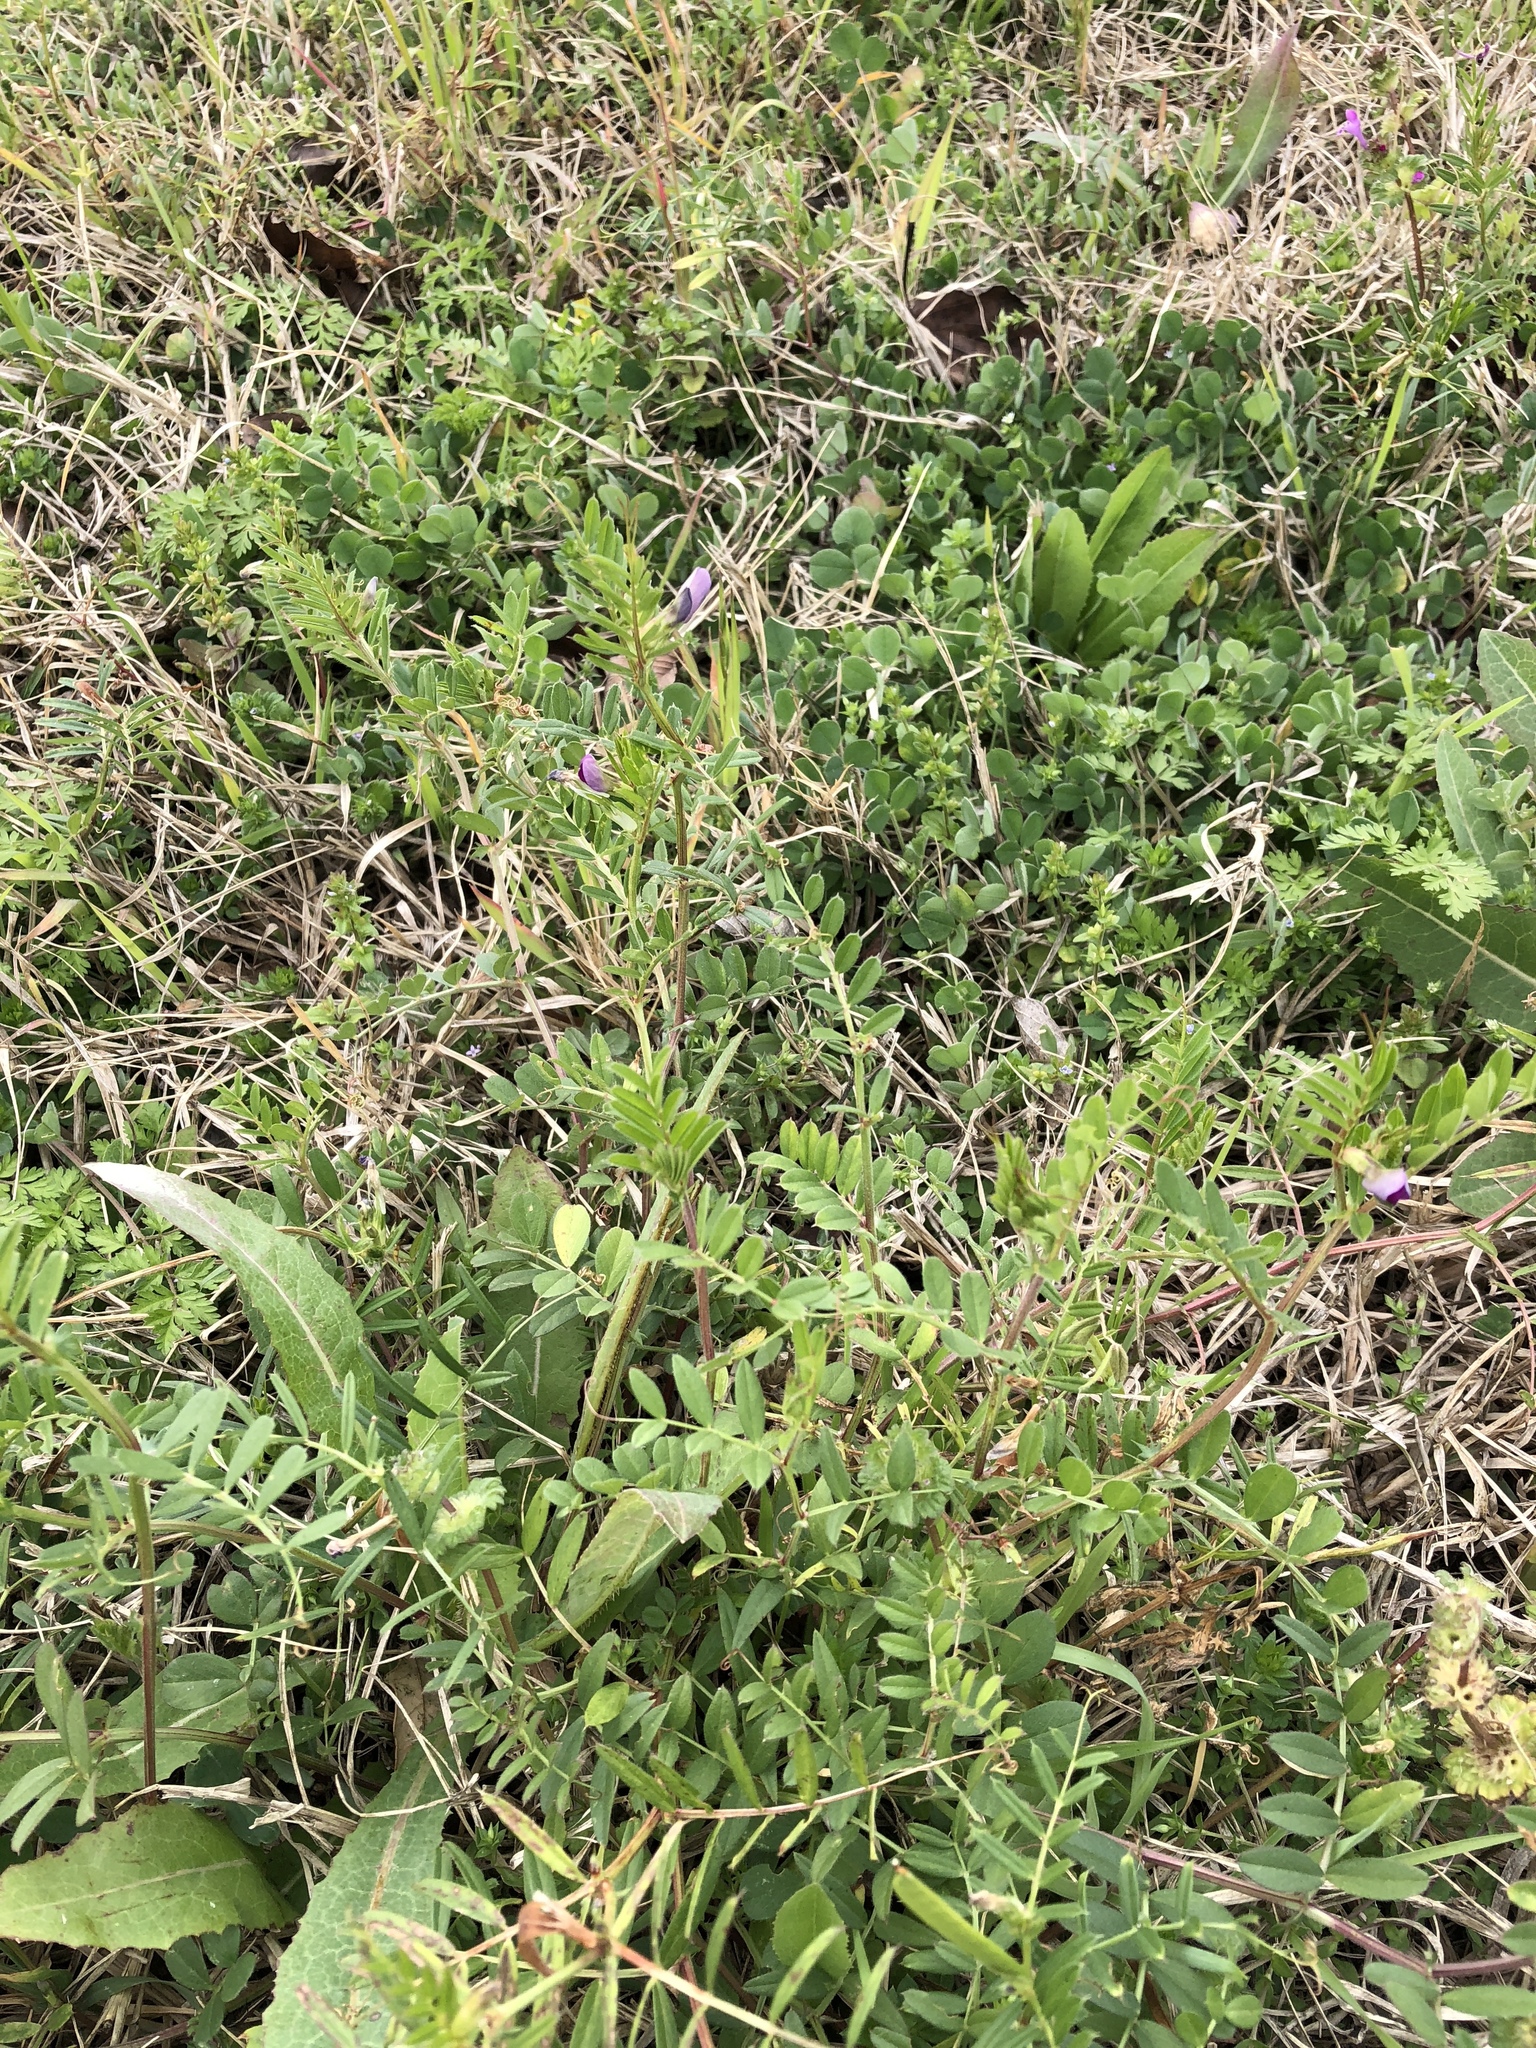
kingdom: Plantae
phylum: Tracheophyta
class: Magnoliopsida
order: Fabales
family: Fabaceae
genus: Vicia
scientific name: Vicia sativa
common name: Garden vetch
